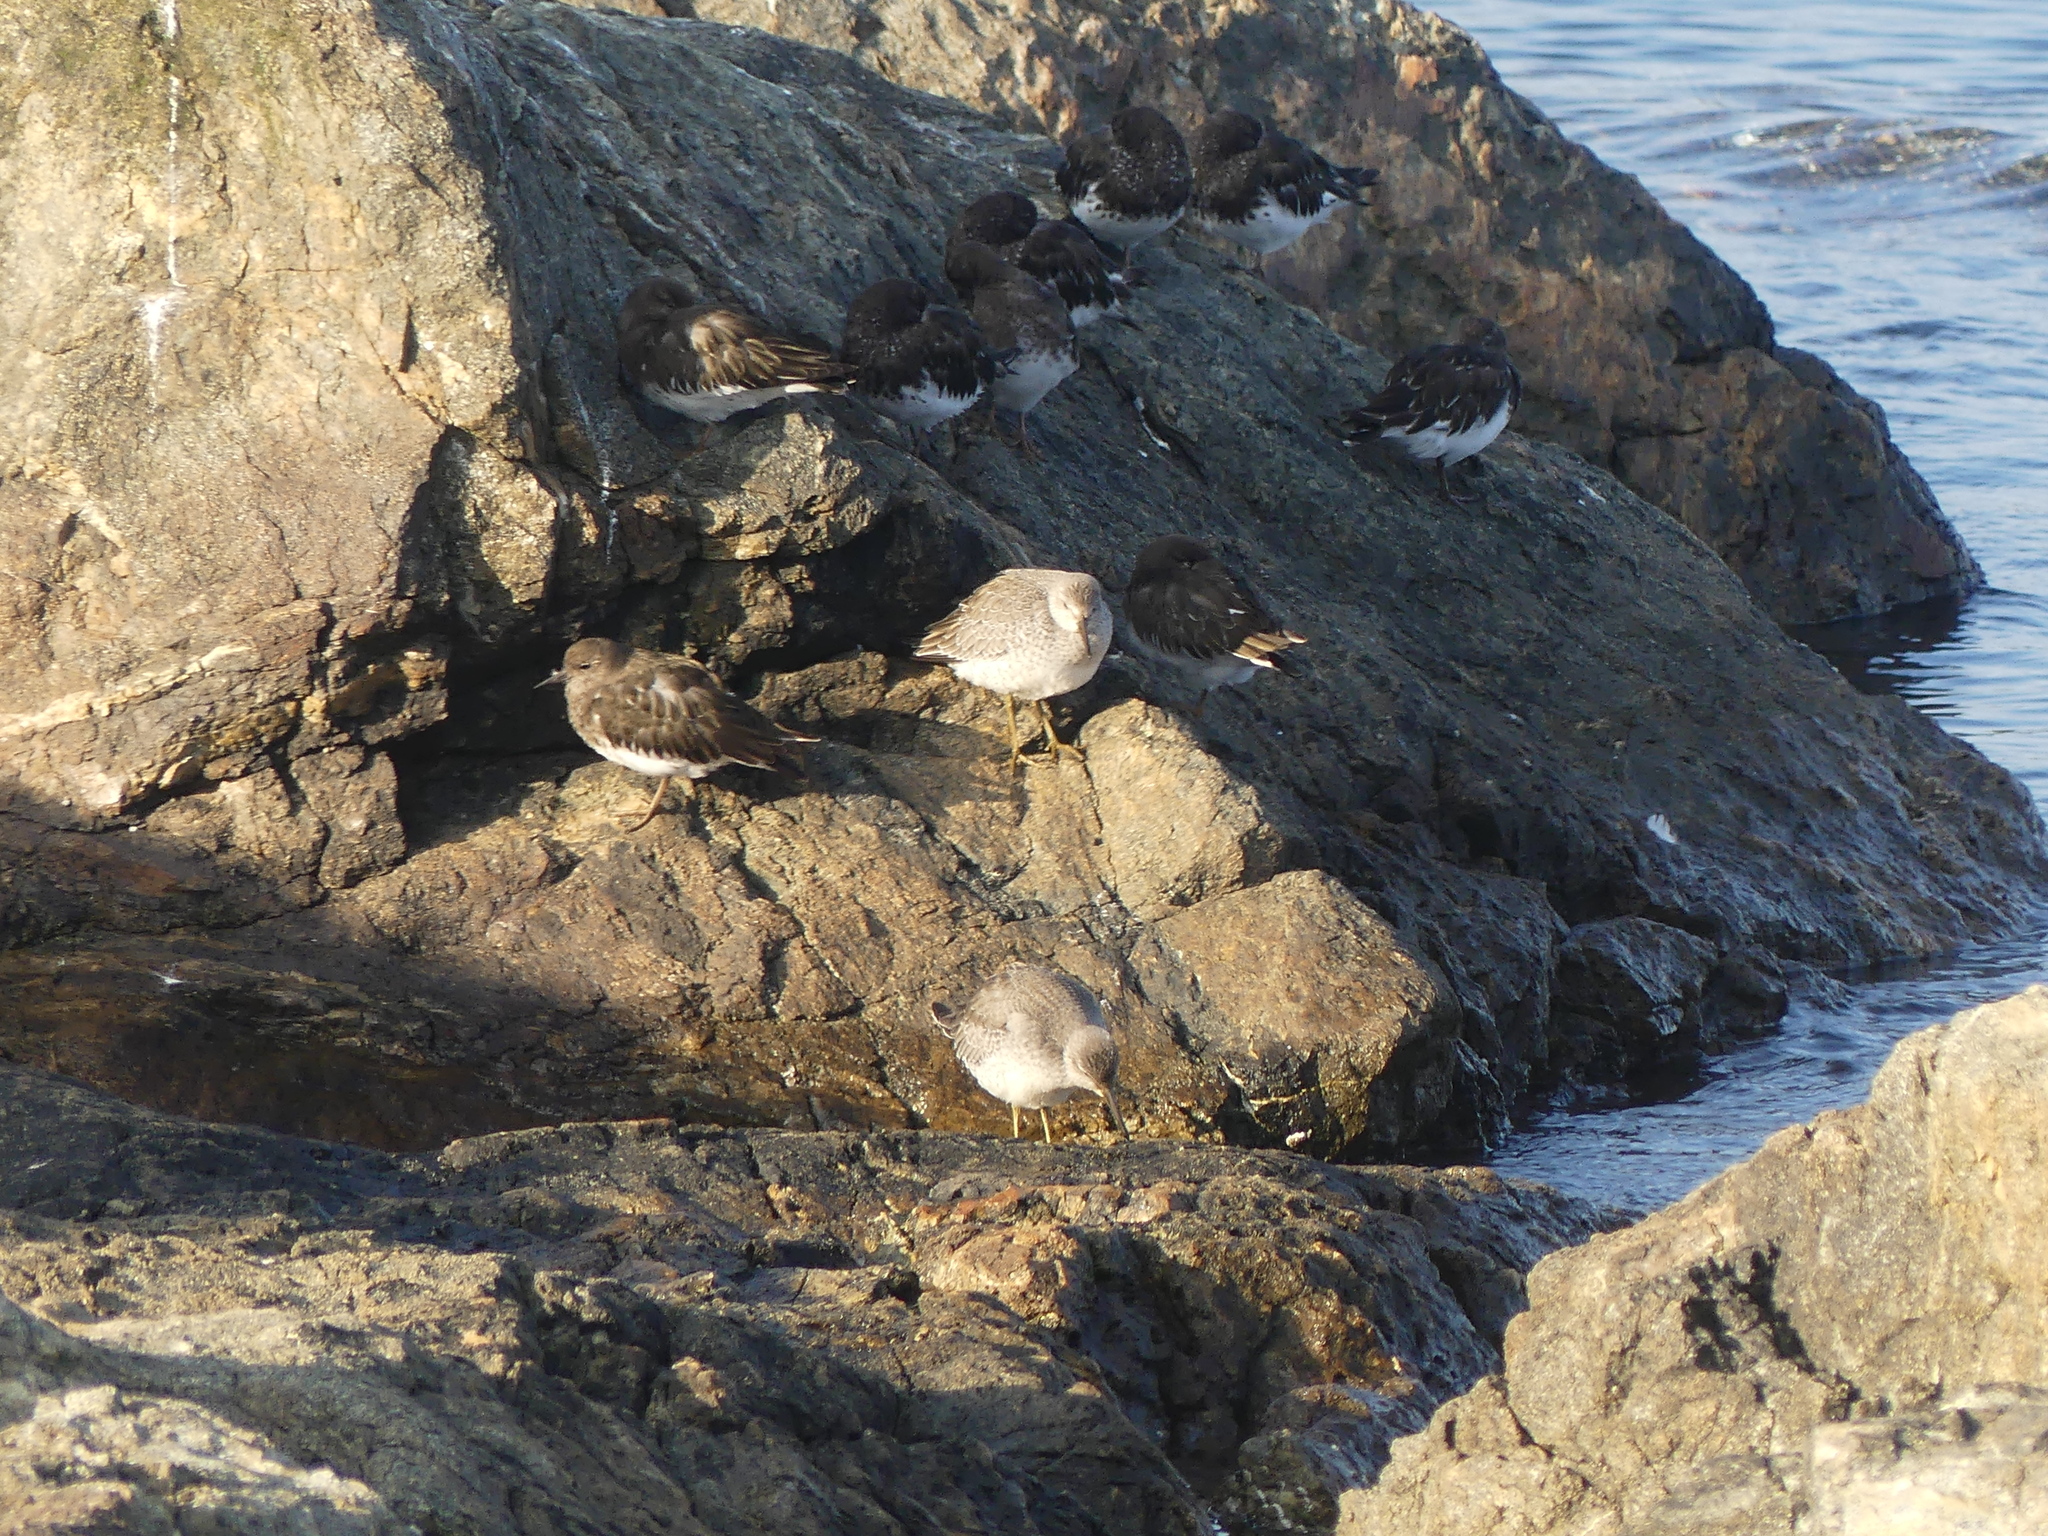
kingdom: Animalia
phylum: Chordata
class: Aves
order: Charadriiformes
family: Scolopacidae
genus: Calidris
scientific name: Calidris canutus
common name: Red knot
